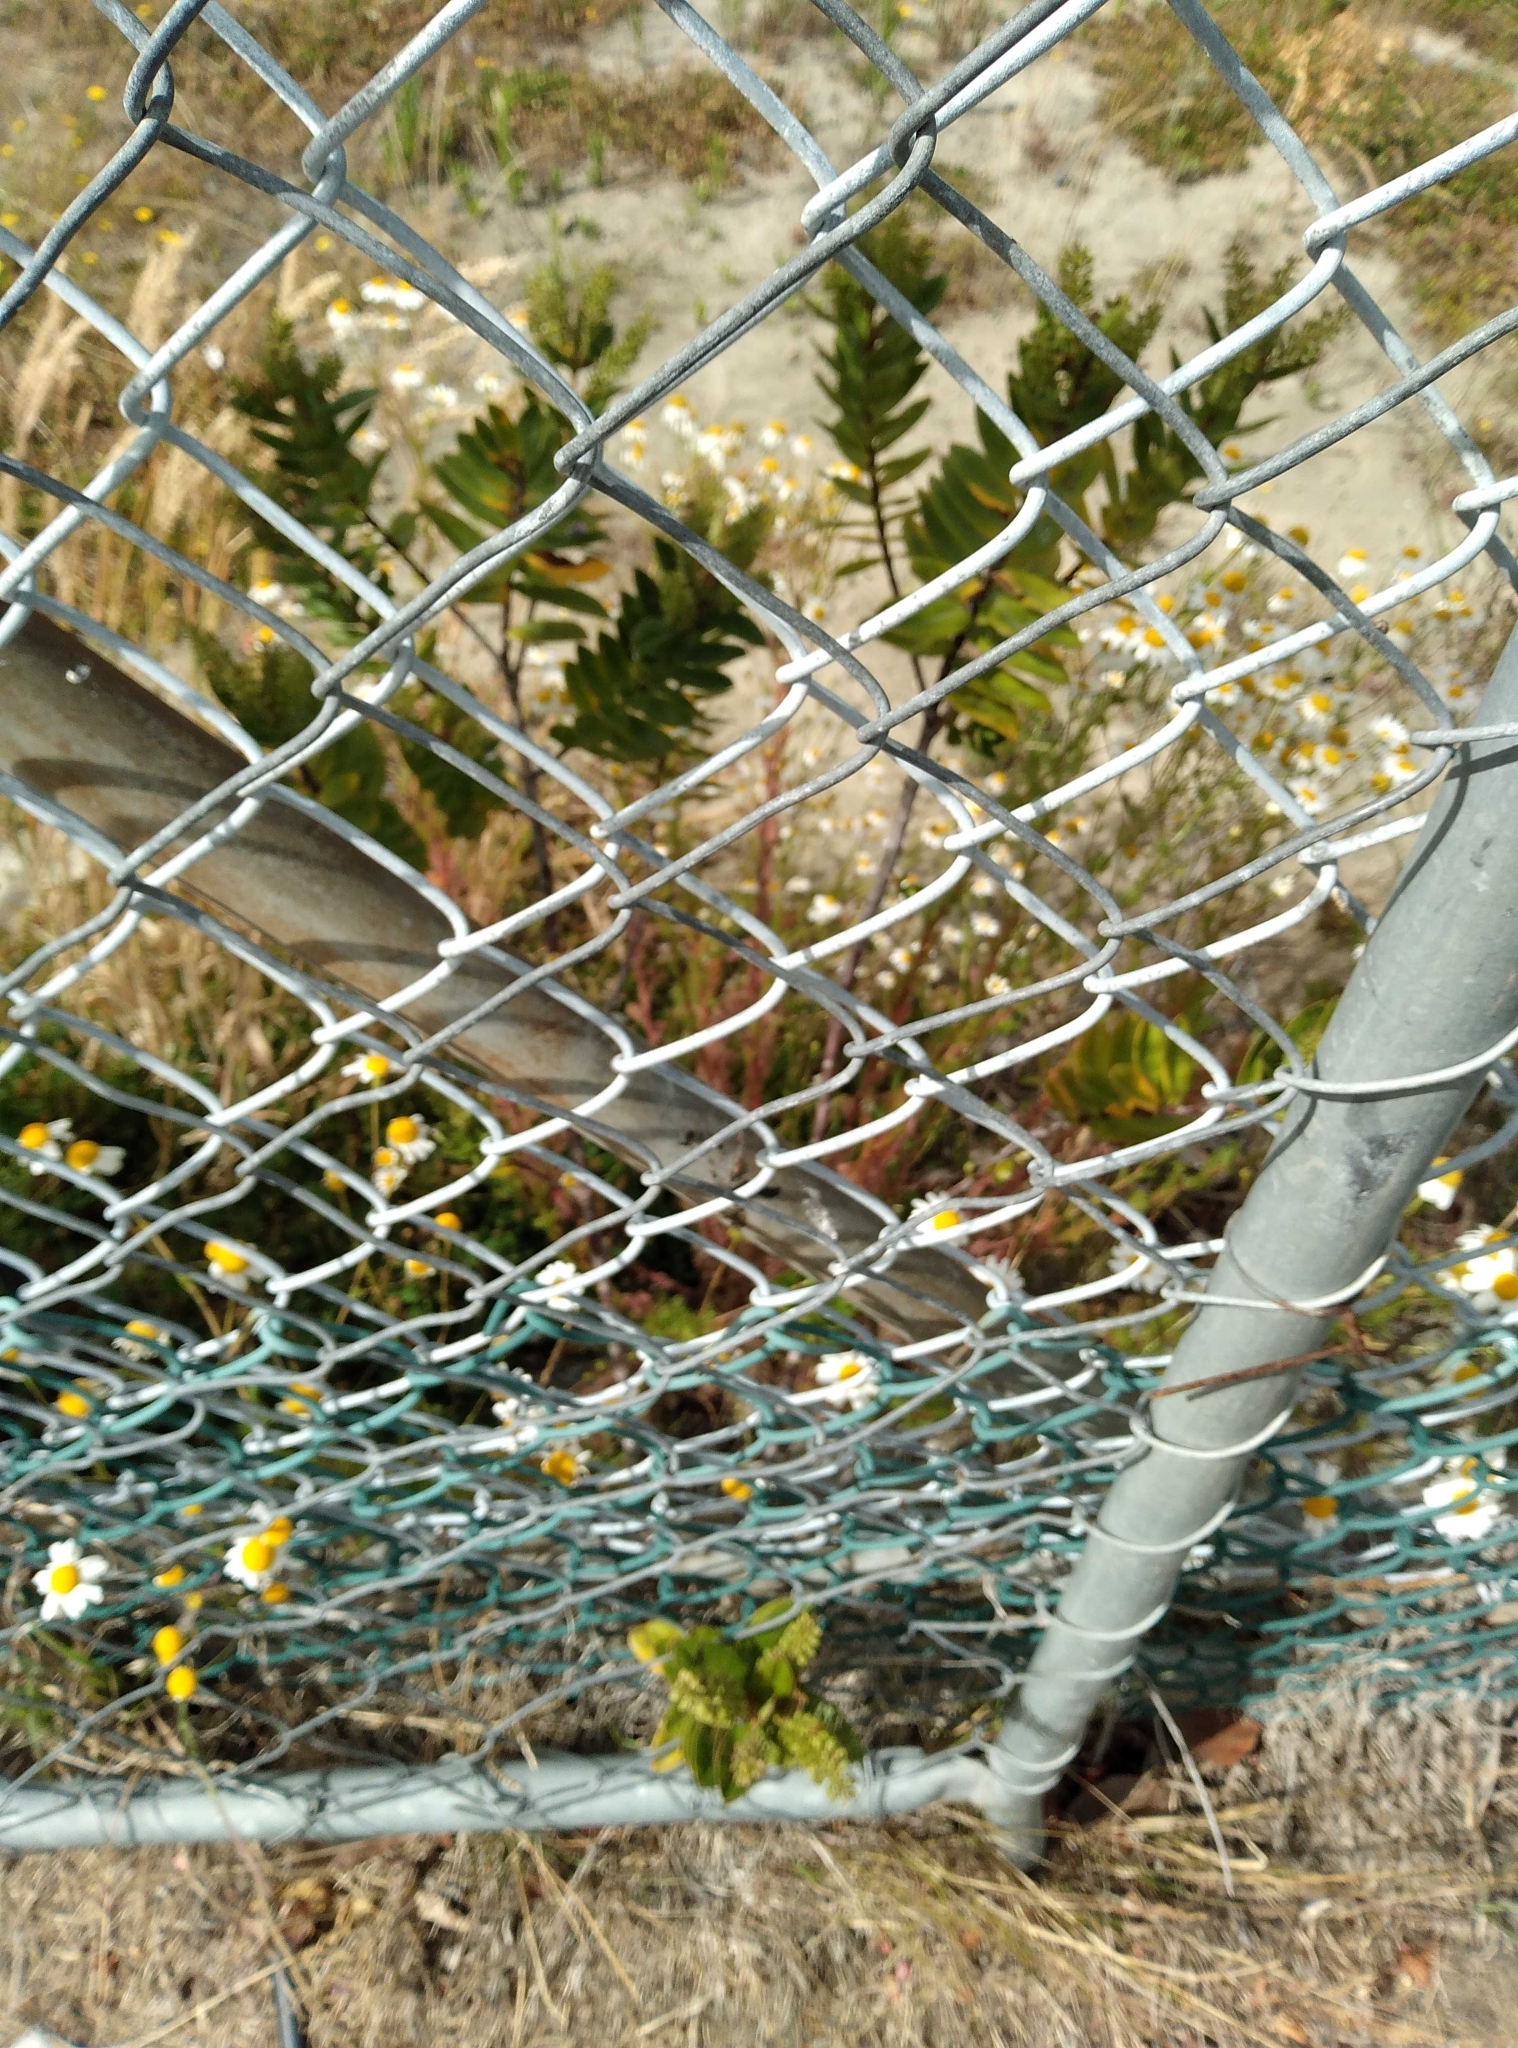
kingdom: Plantae
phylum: Tracheophyta
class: Magnoliopsida
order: Lamiales
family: Plantaginaceae
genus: Veronica
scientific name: Veronica speciosa
